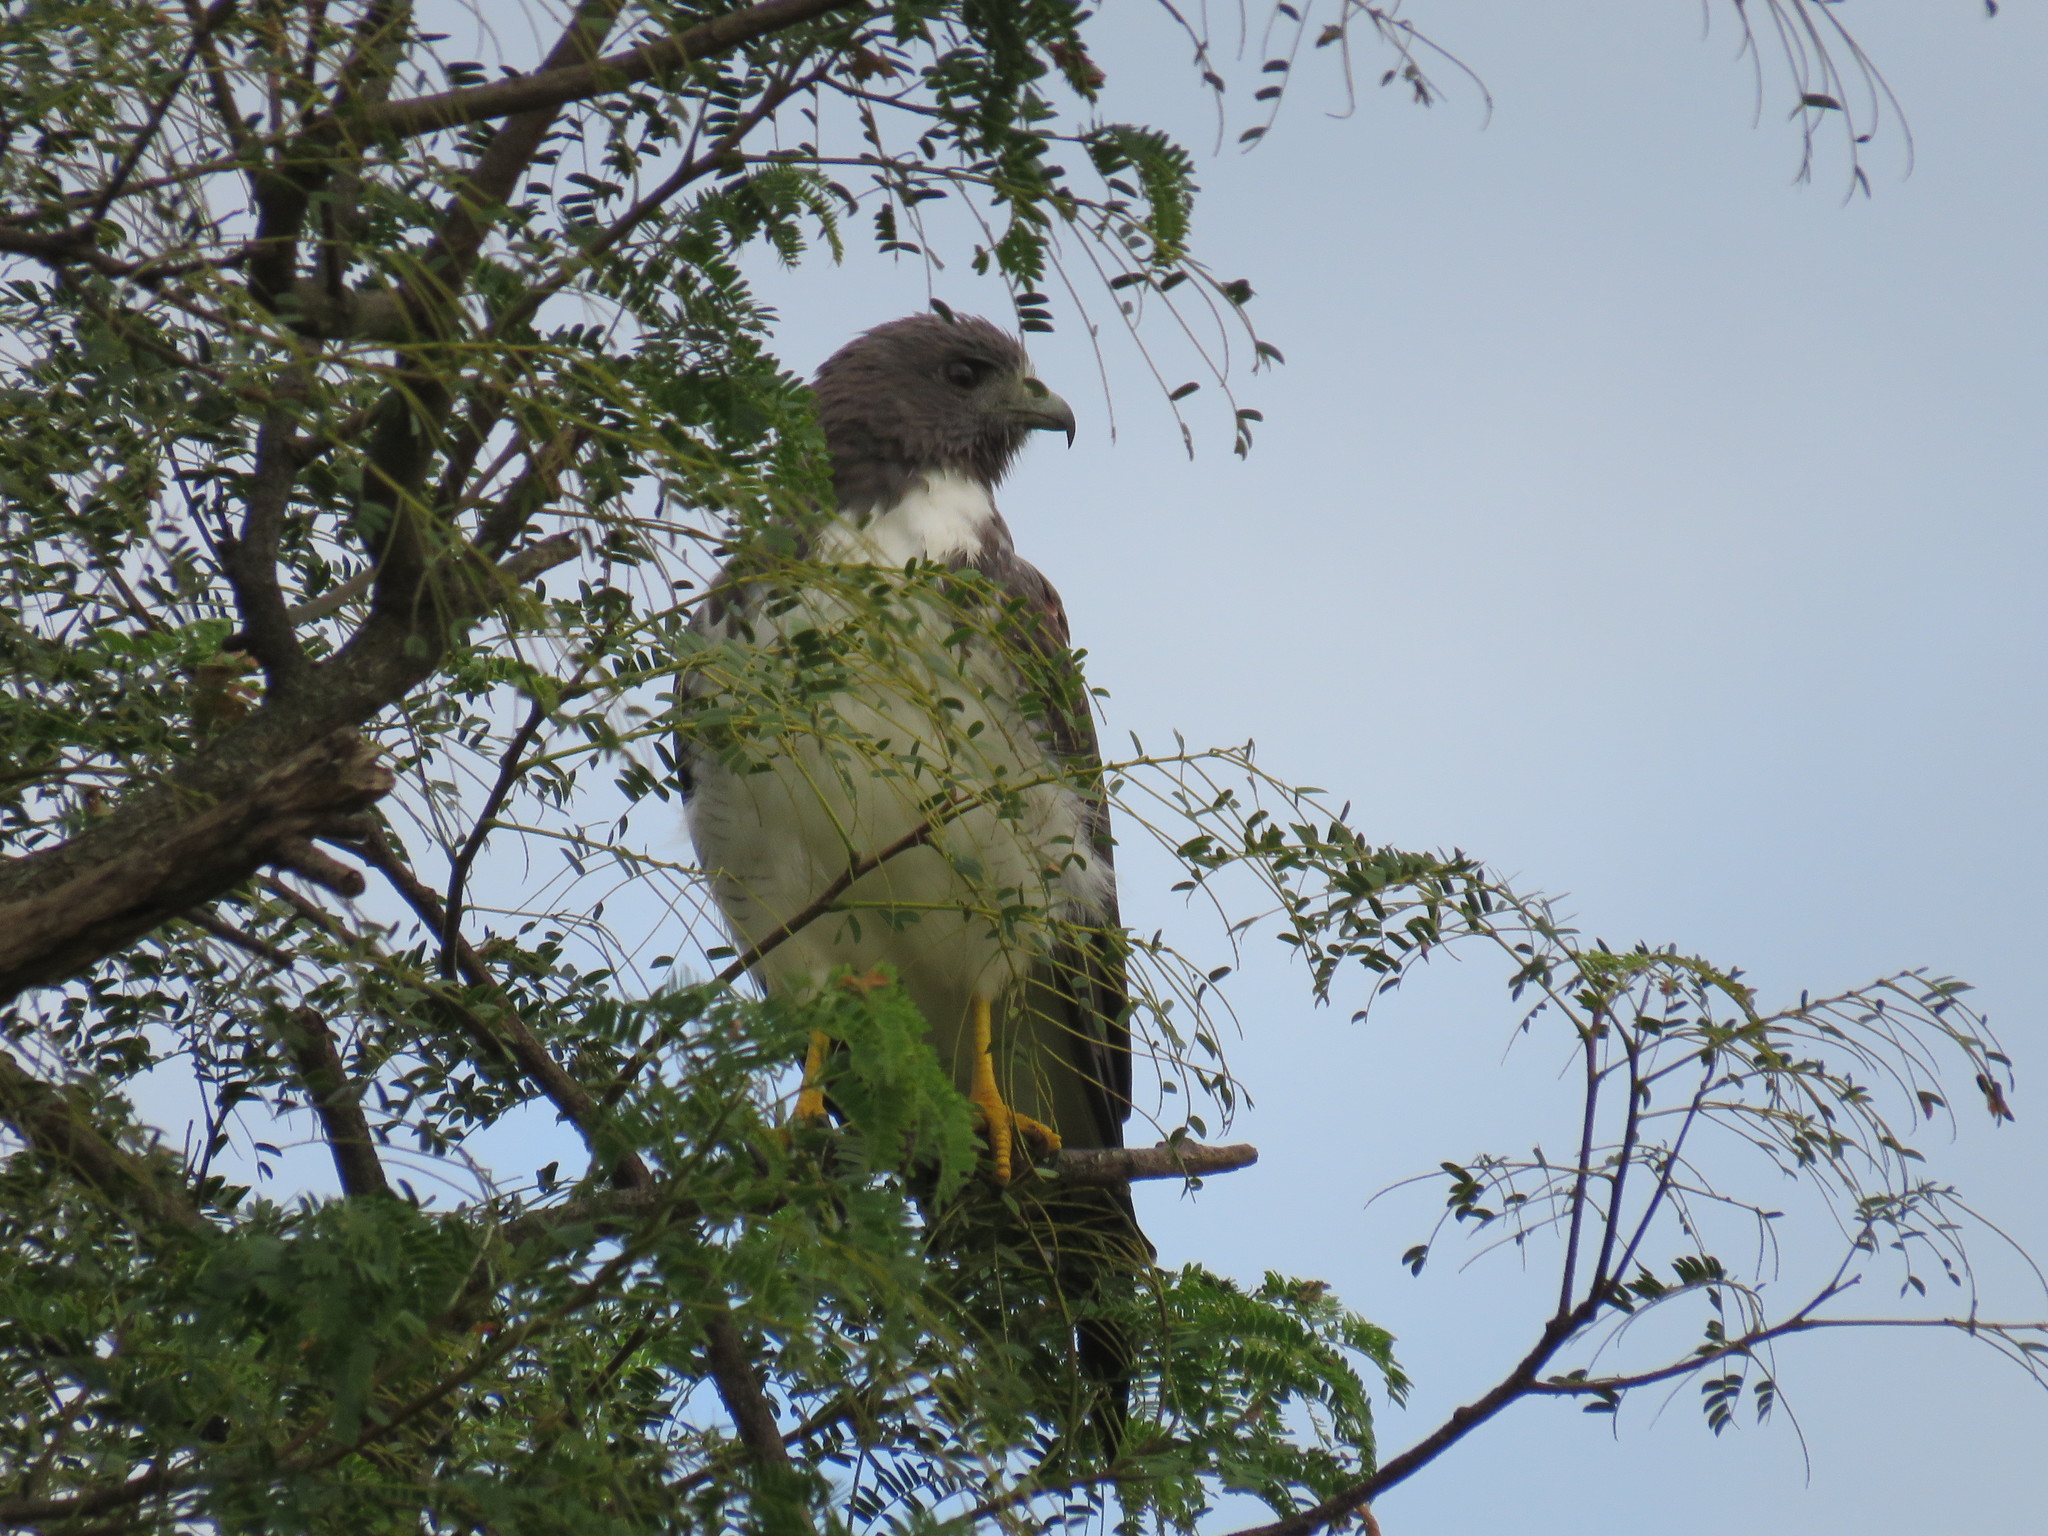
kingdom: Animalia
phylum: Chordata
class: Aves
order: Accipitriformes
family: Accipitridae
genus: Buteo
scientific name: Buteo albicaudatus
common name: White-tailed hawk
